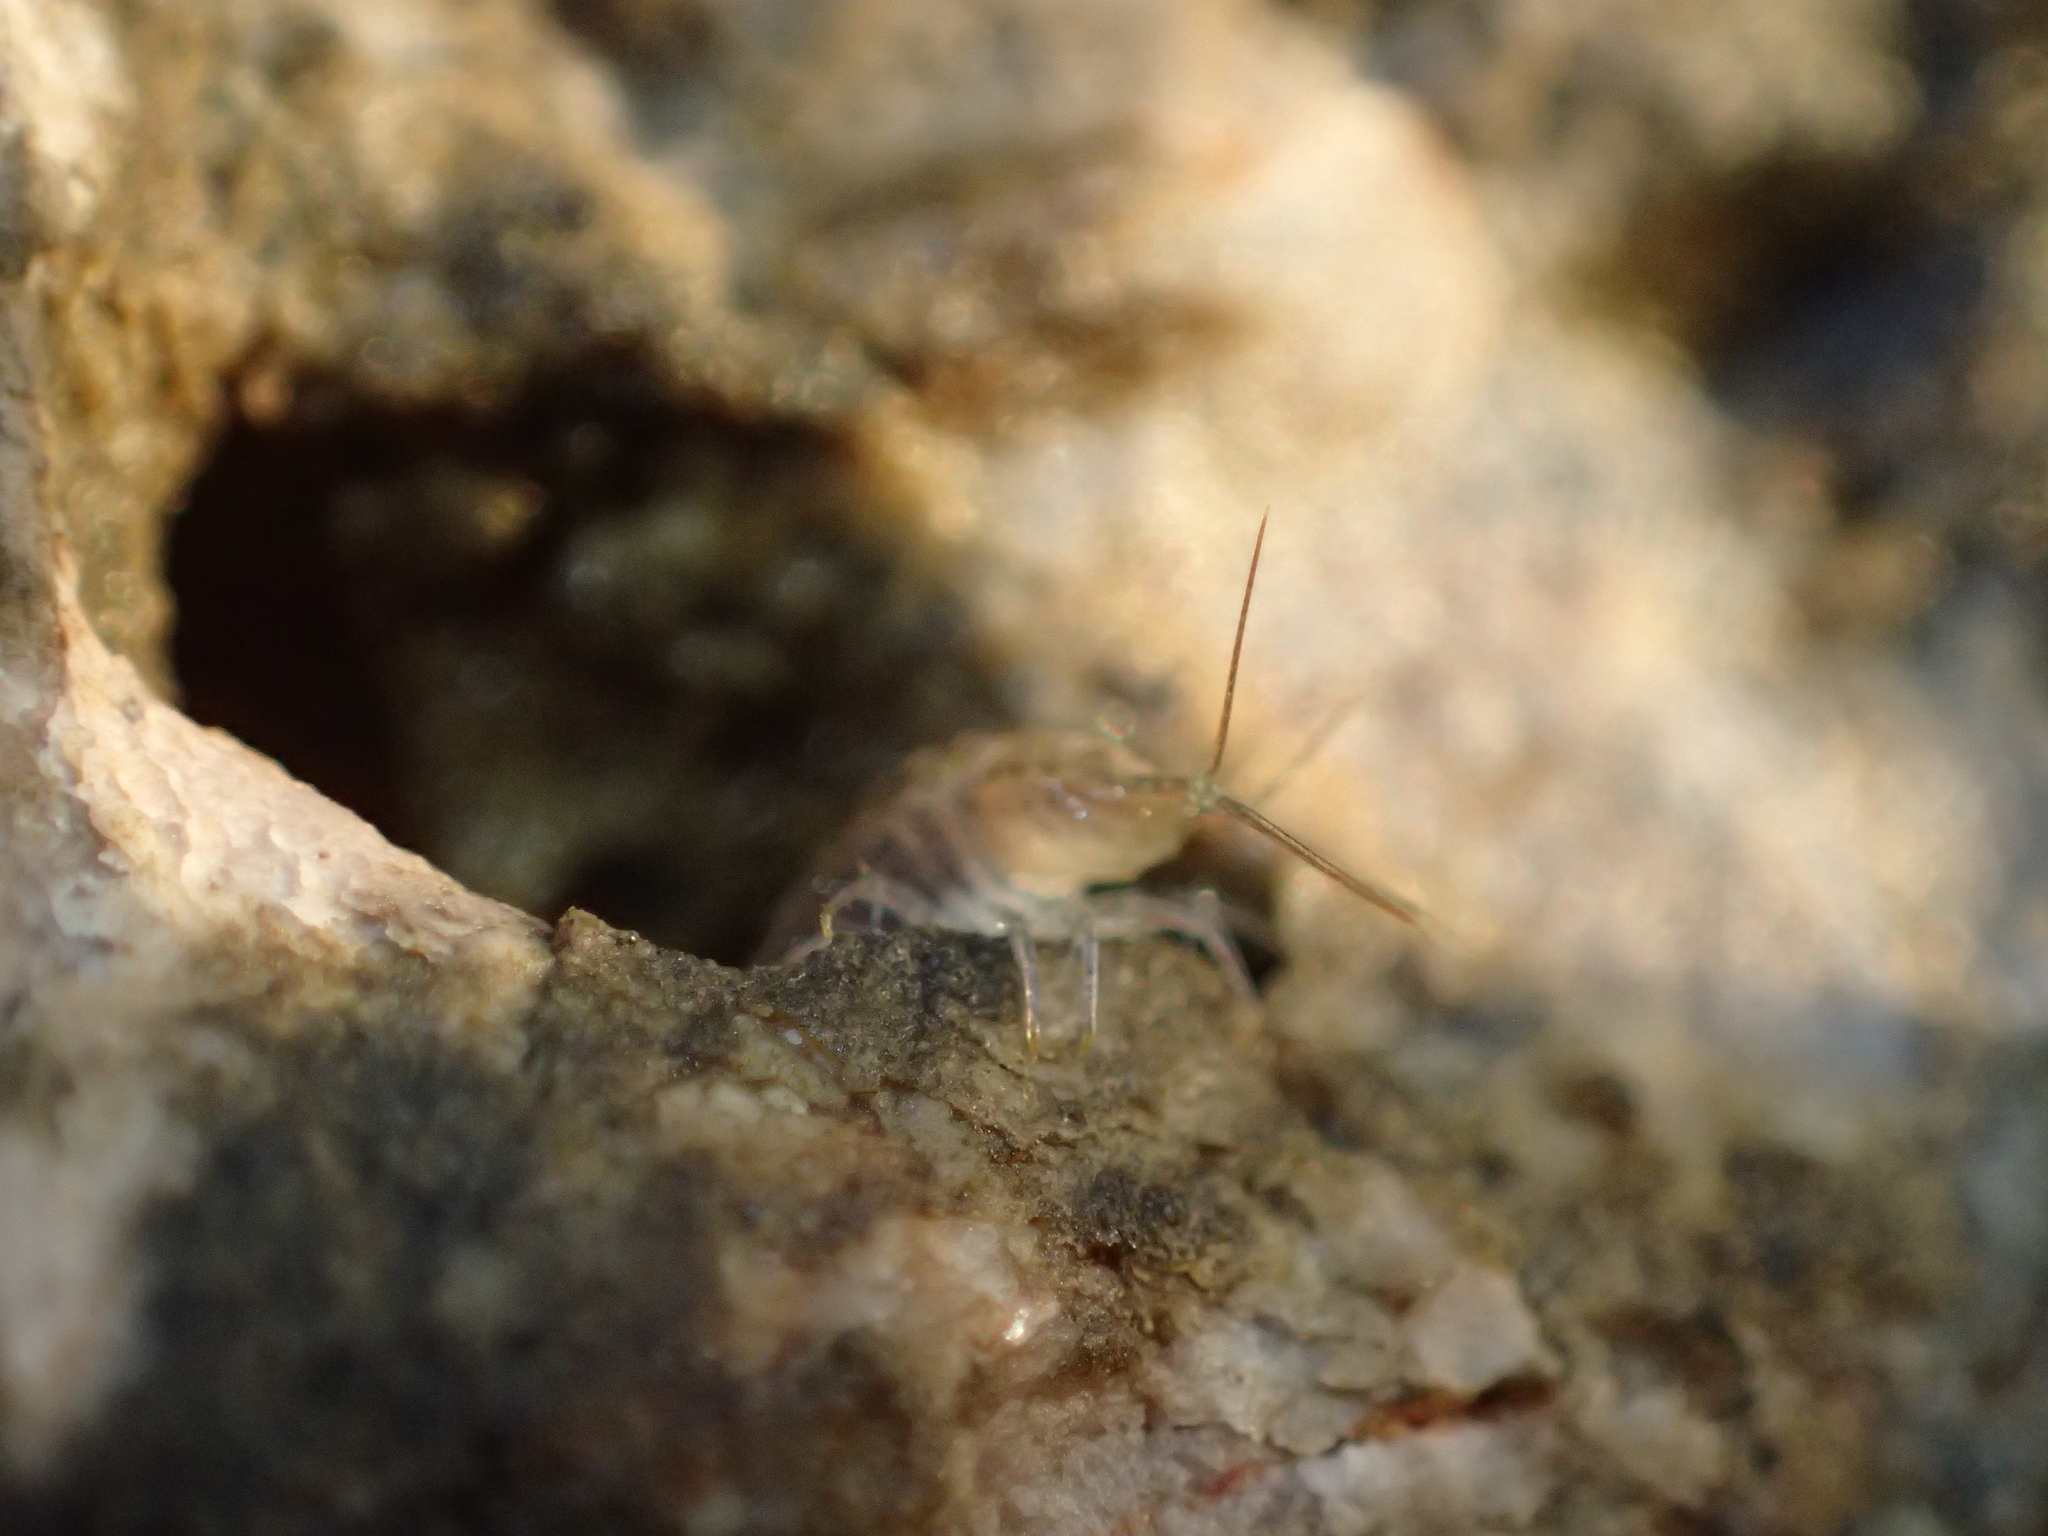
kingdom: Animalia
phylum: Arthropoda
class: Malacostraca
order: Isopoda
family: Ligiidae
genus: Ligia
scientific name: Ligia italica
